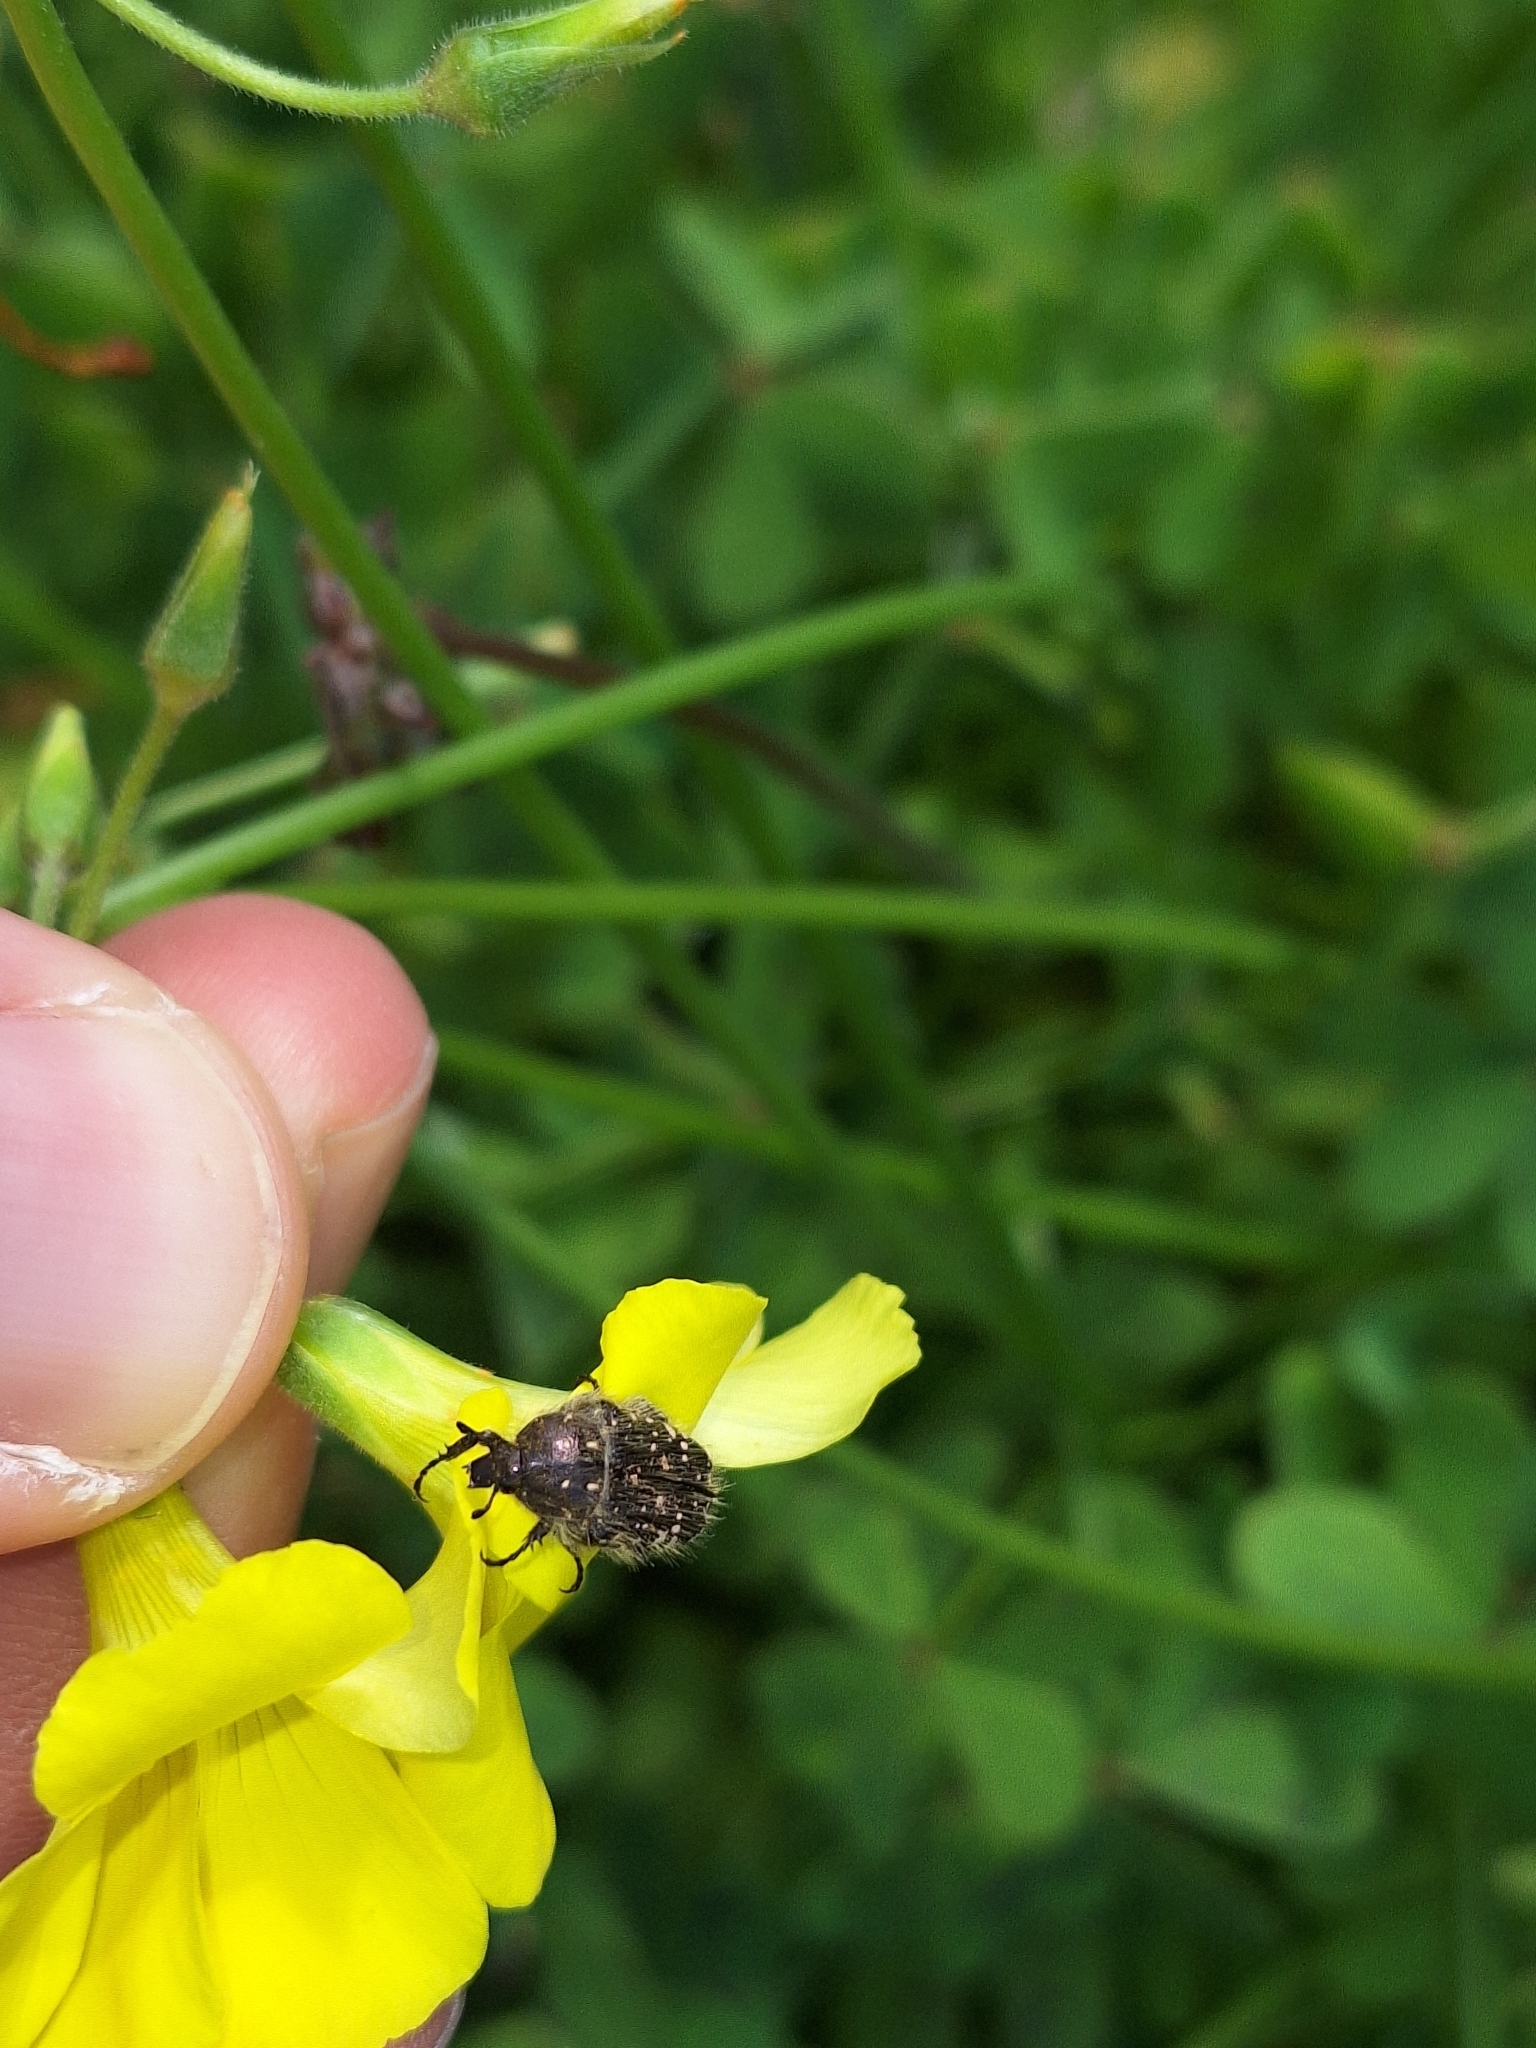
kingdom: Animalia
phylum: Arthropoda
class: Insecta
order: Coleoptera
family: Scarabaeidae
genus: Oxythyrea
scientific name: Oxythyrea funesta
